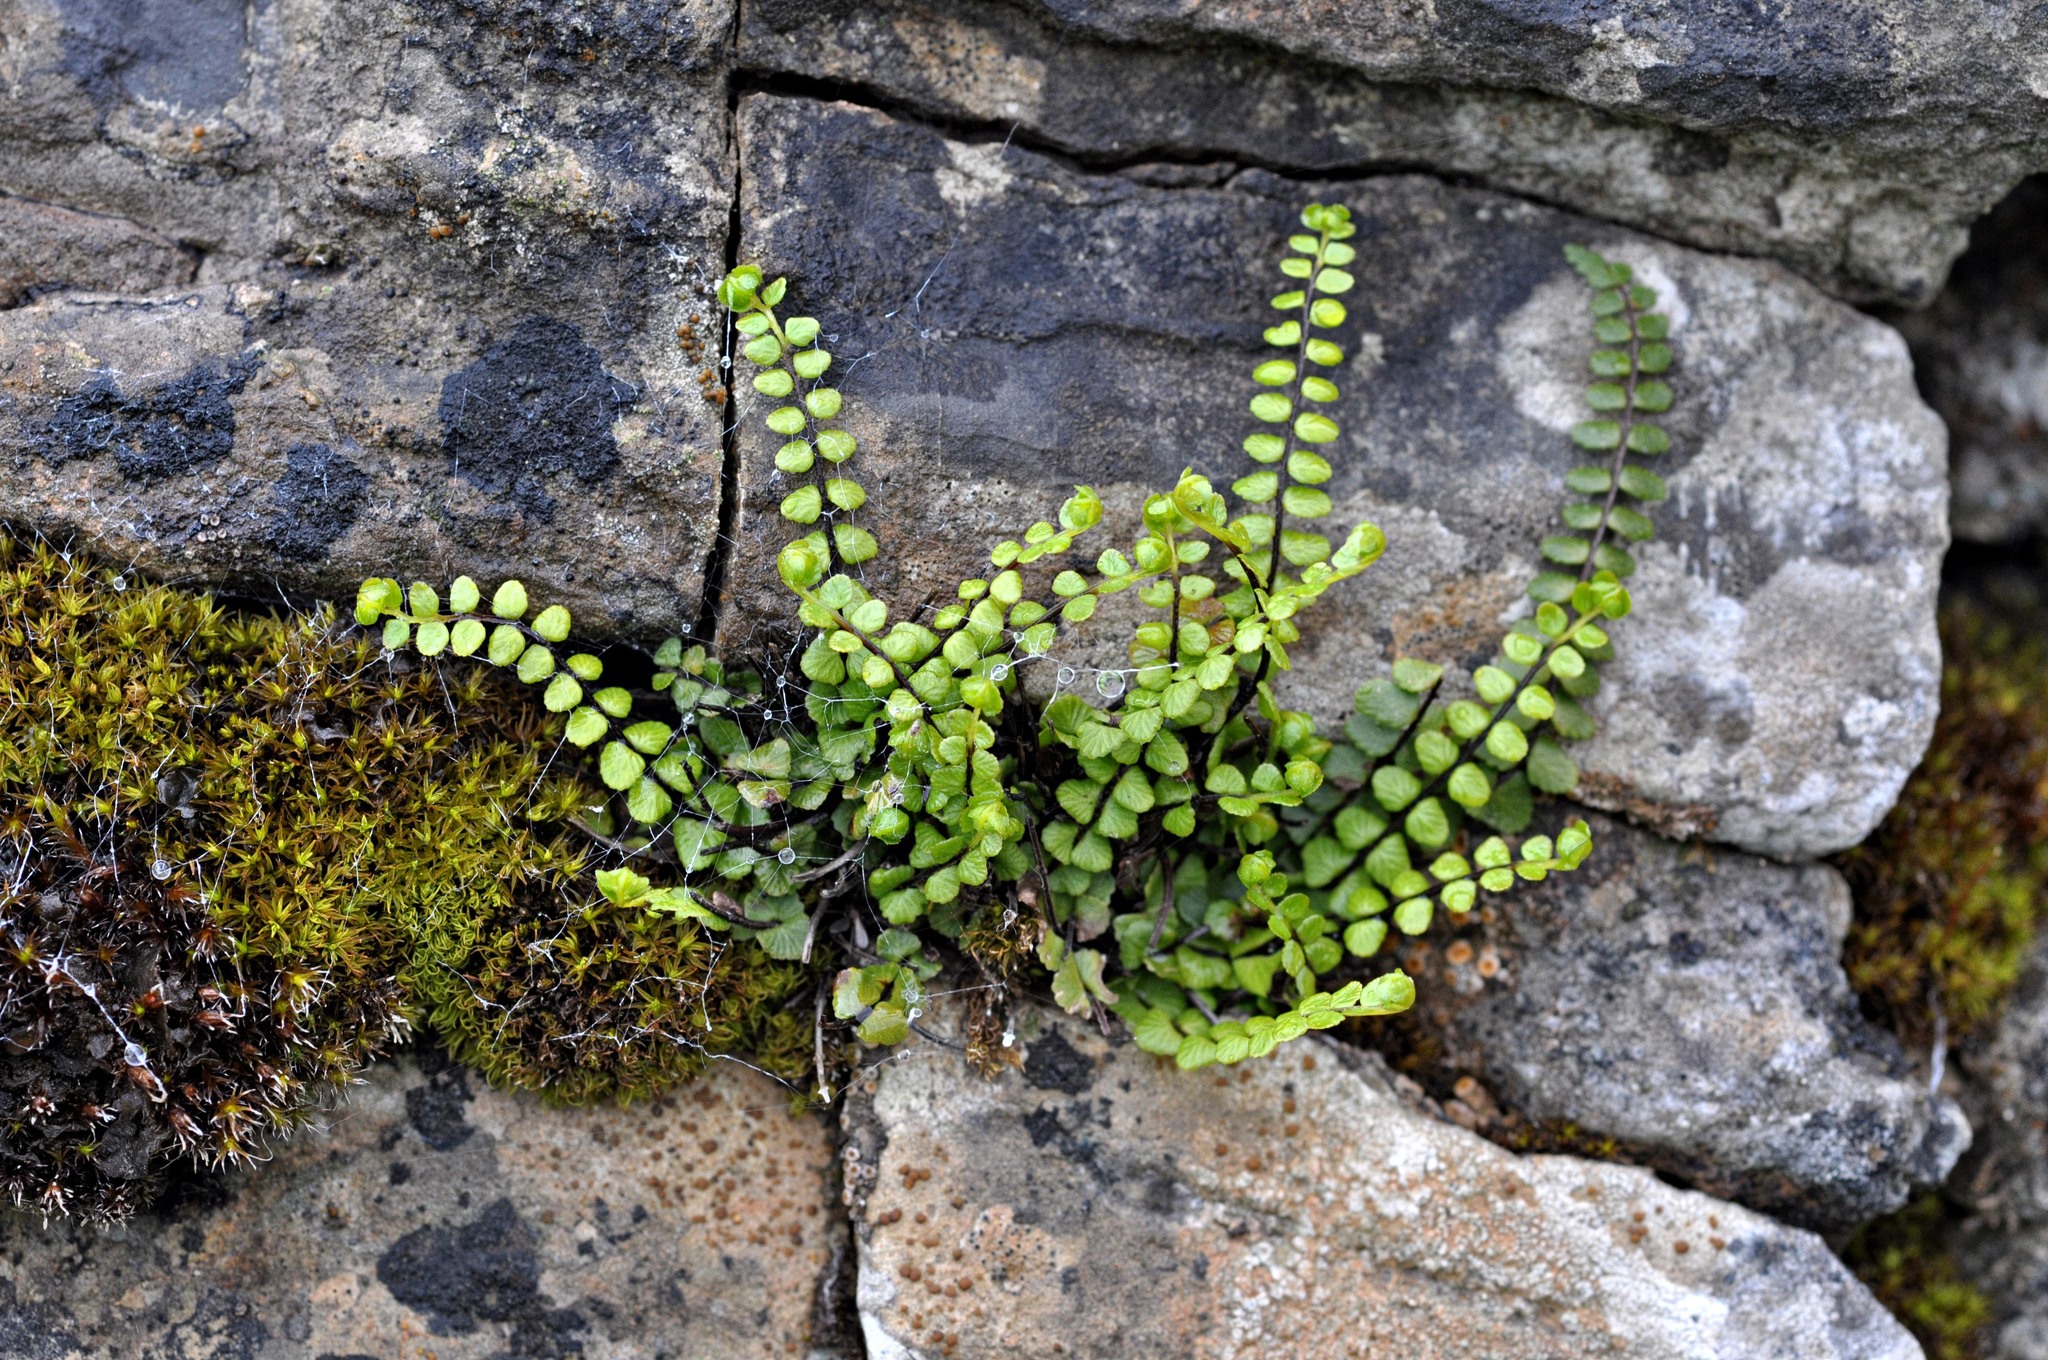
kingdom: Plantae
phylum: Tracheophyta
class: Polypodiopsida
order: Polypodiales
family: Aspleniaceae
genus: Asplenium
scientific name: Asplenium trichomanes
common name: Maidenhair spleenwort
